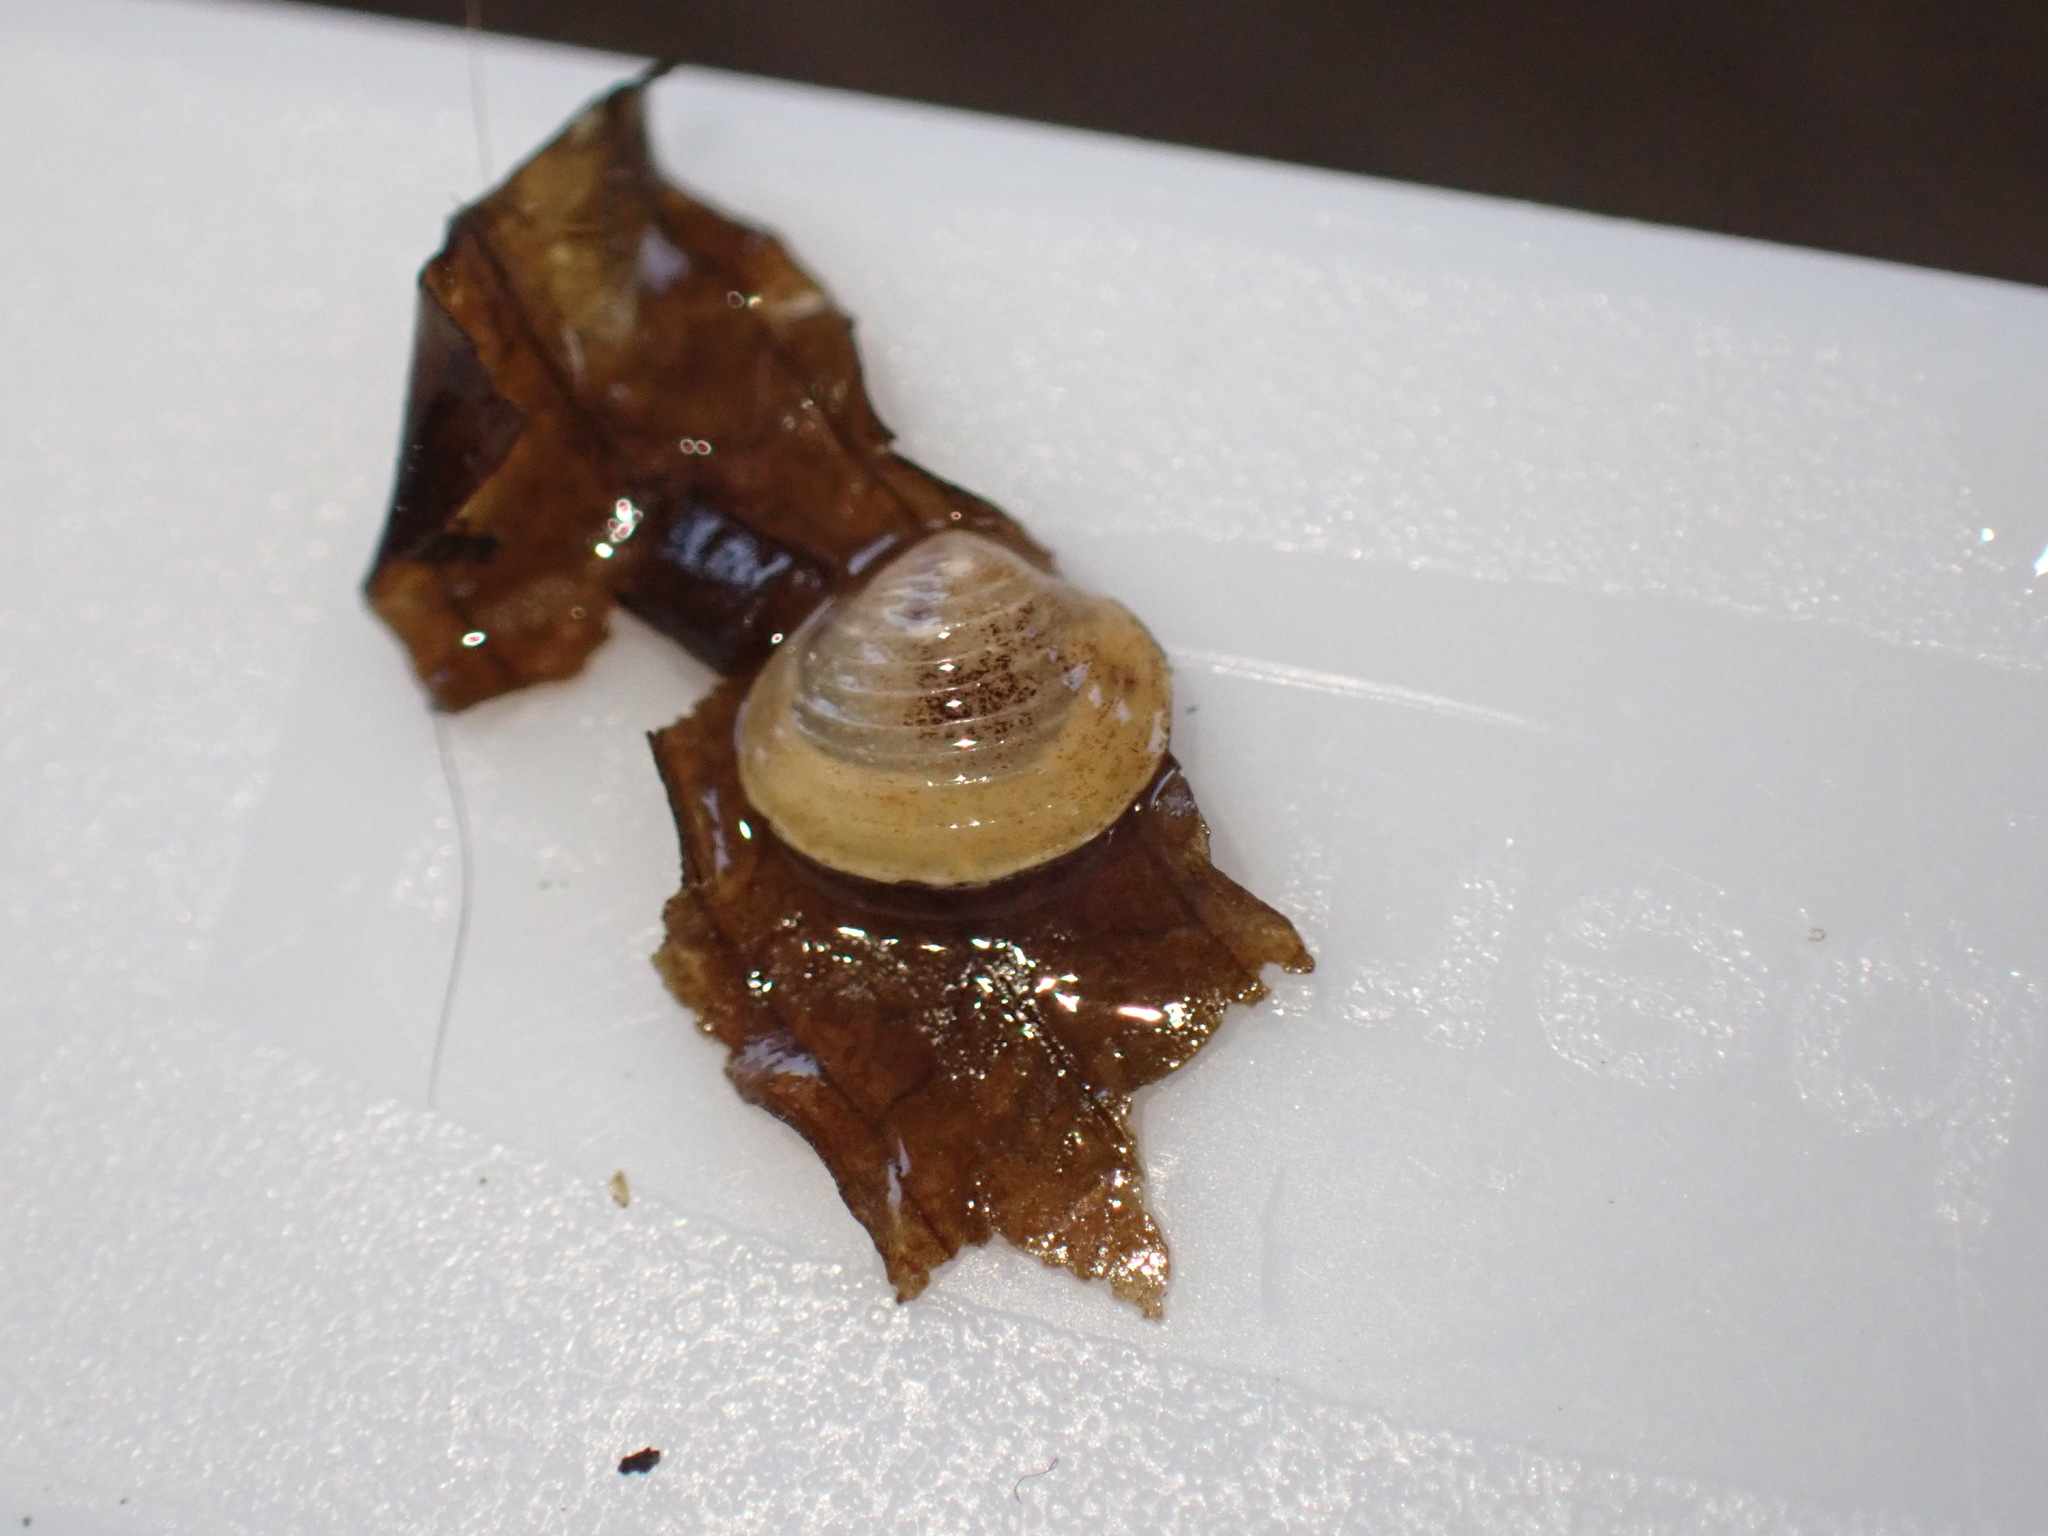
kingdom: Animalia
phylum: Mollusca
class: Bivalvia
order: Venerida
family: Cyrenidae
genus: Corbicula
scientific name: Corbicula fluminea
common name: Asian clam
